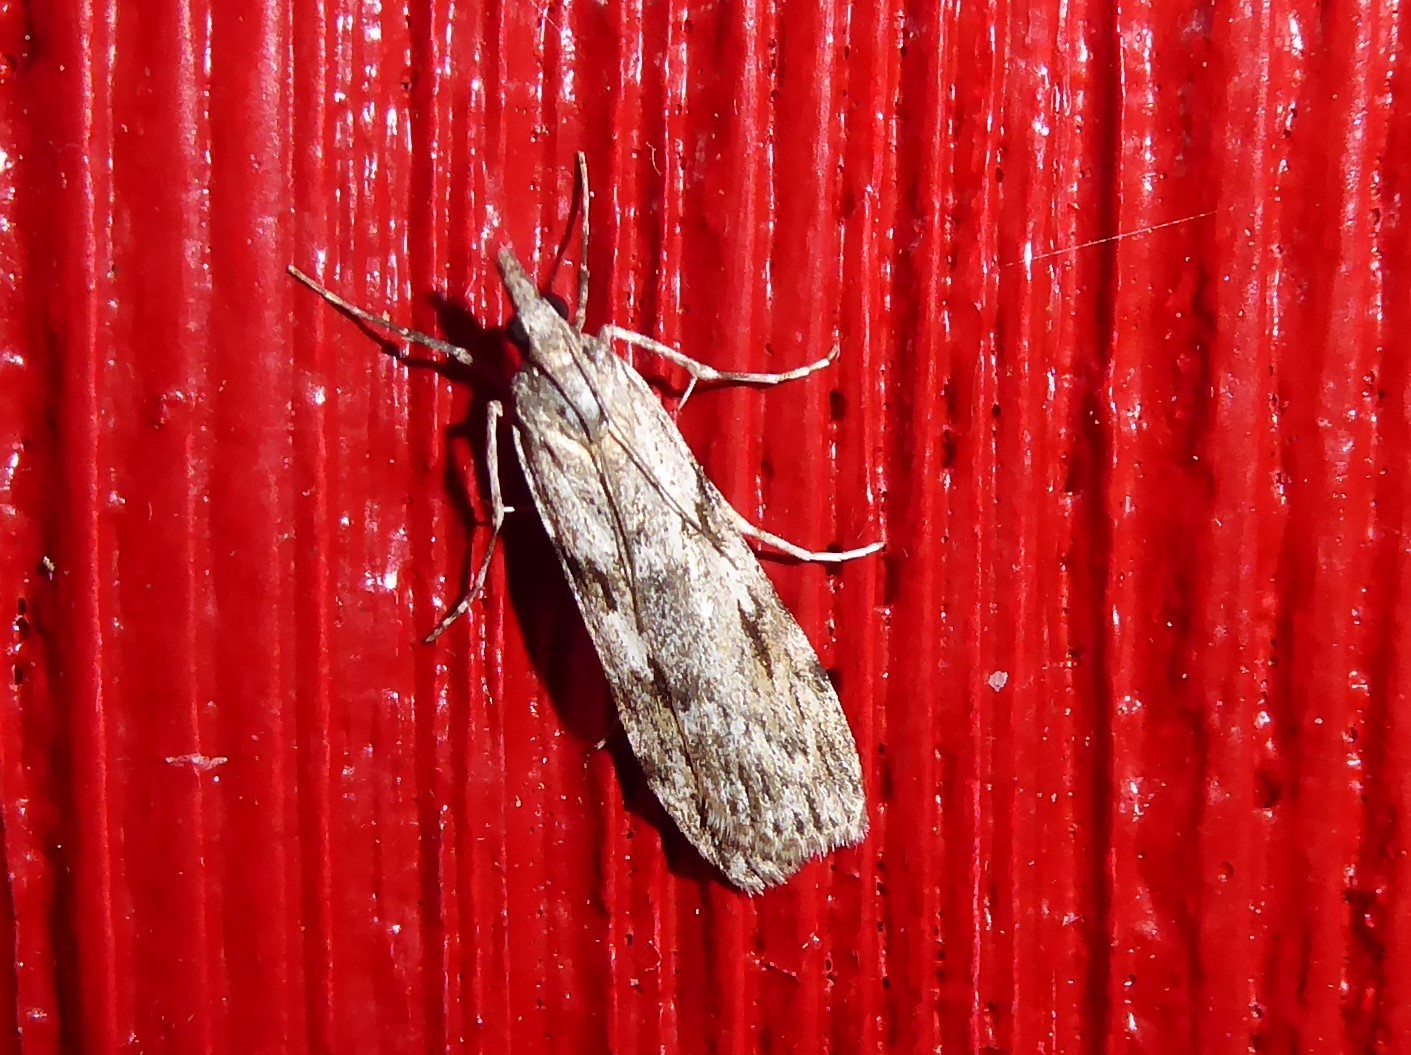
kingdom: Animalia
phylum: Arthropoda
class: Insecta
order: Lepidoptera
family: Crambidae
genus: Scoparia
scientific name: Scoparia halopis
